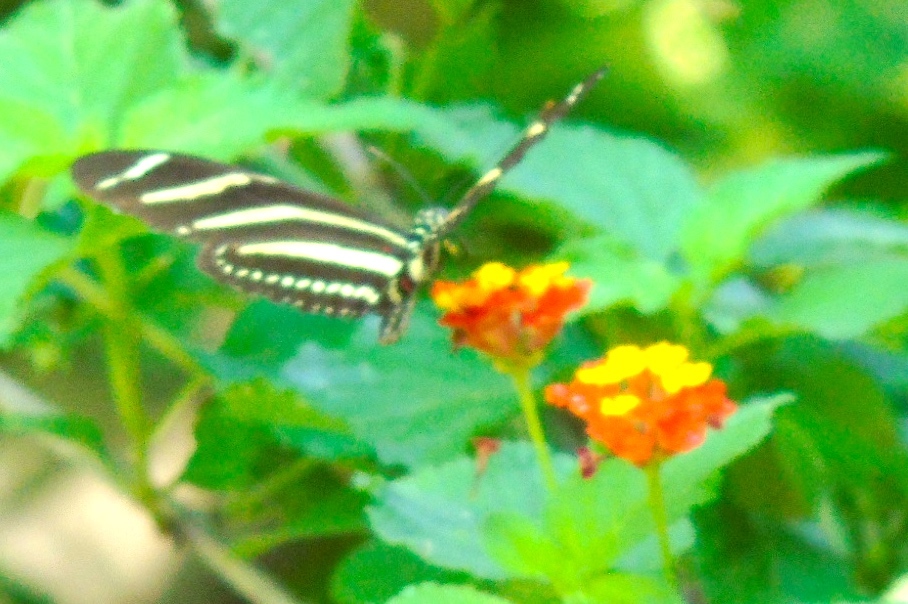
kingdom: Animalia
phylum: Arthropoda
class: Insecta
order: Lepidoptera
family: Nymphalidae
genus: Heliconius
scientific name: Heliconius charithonia
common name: Zebra long wing
